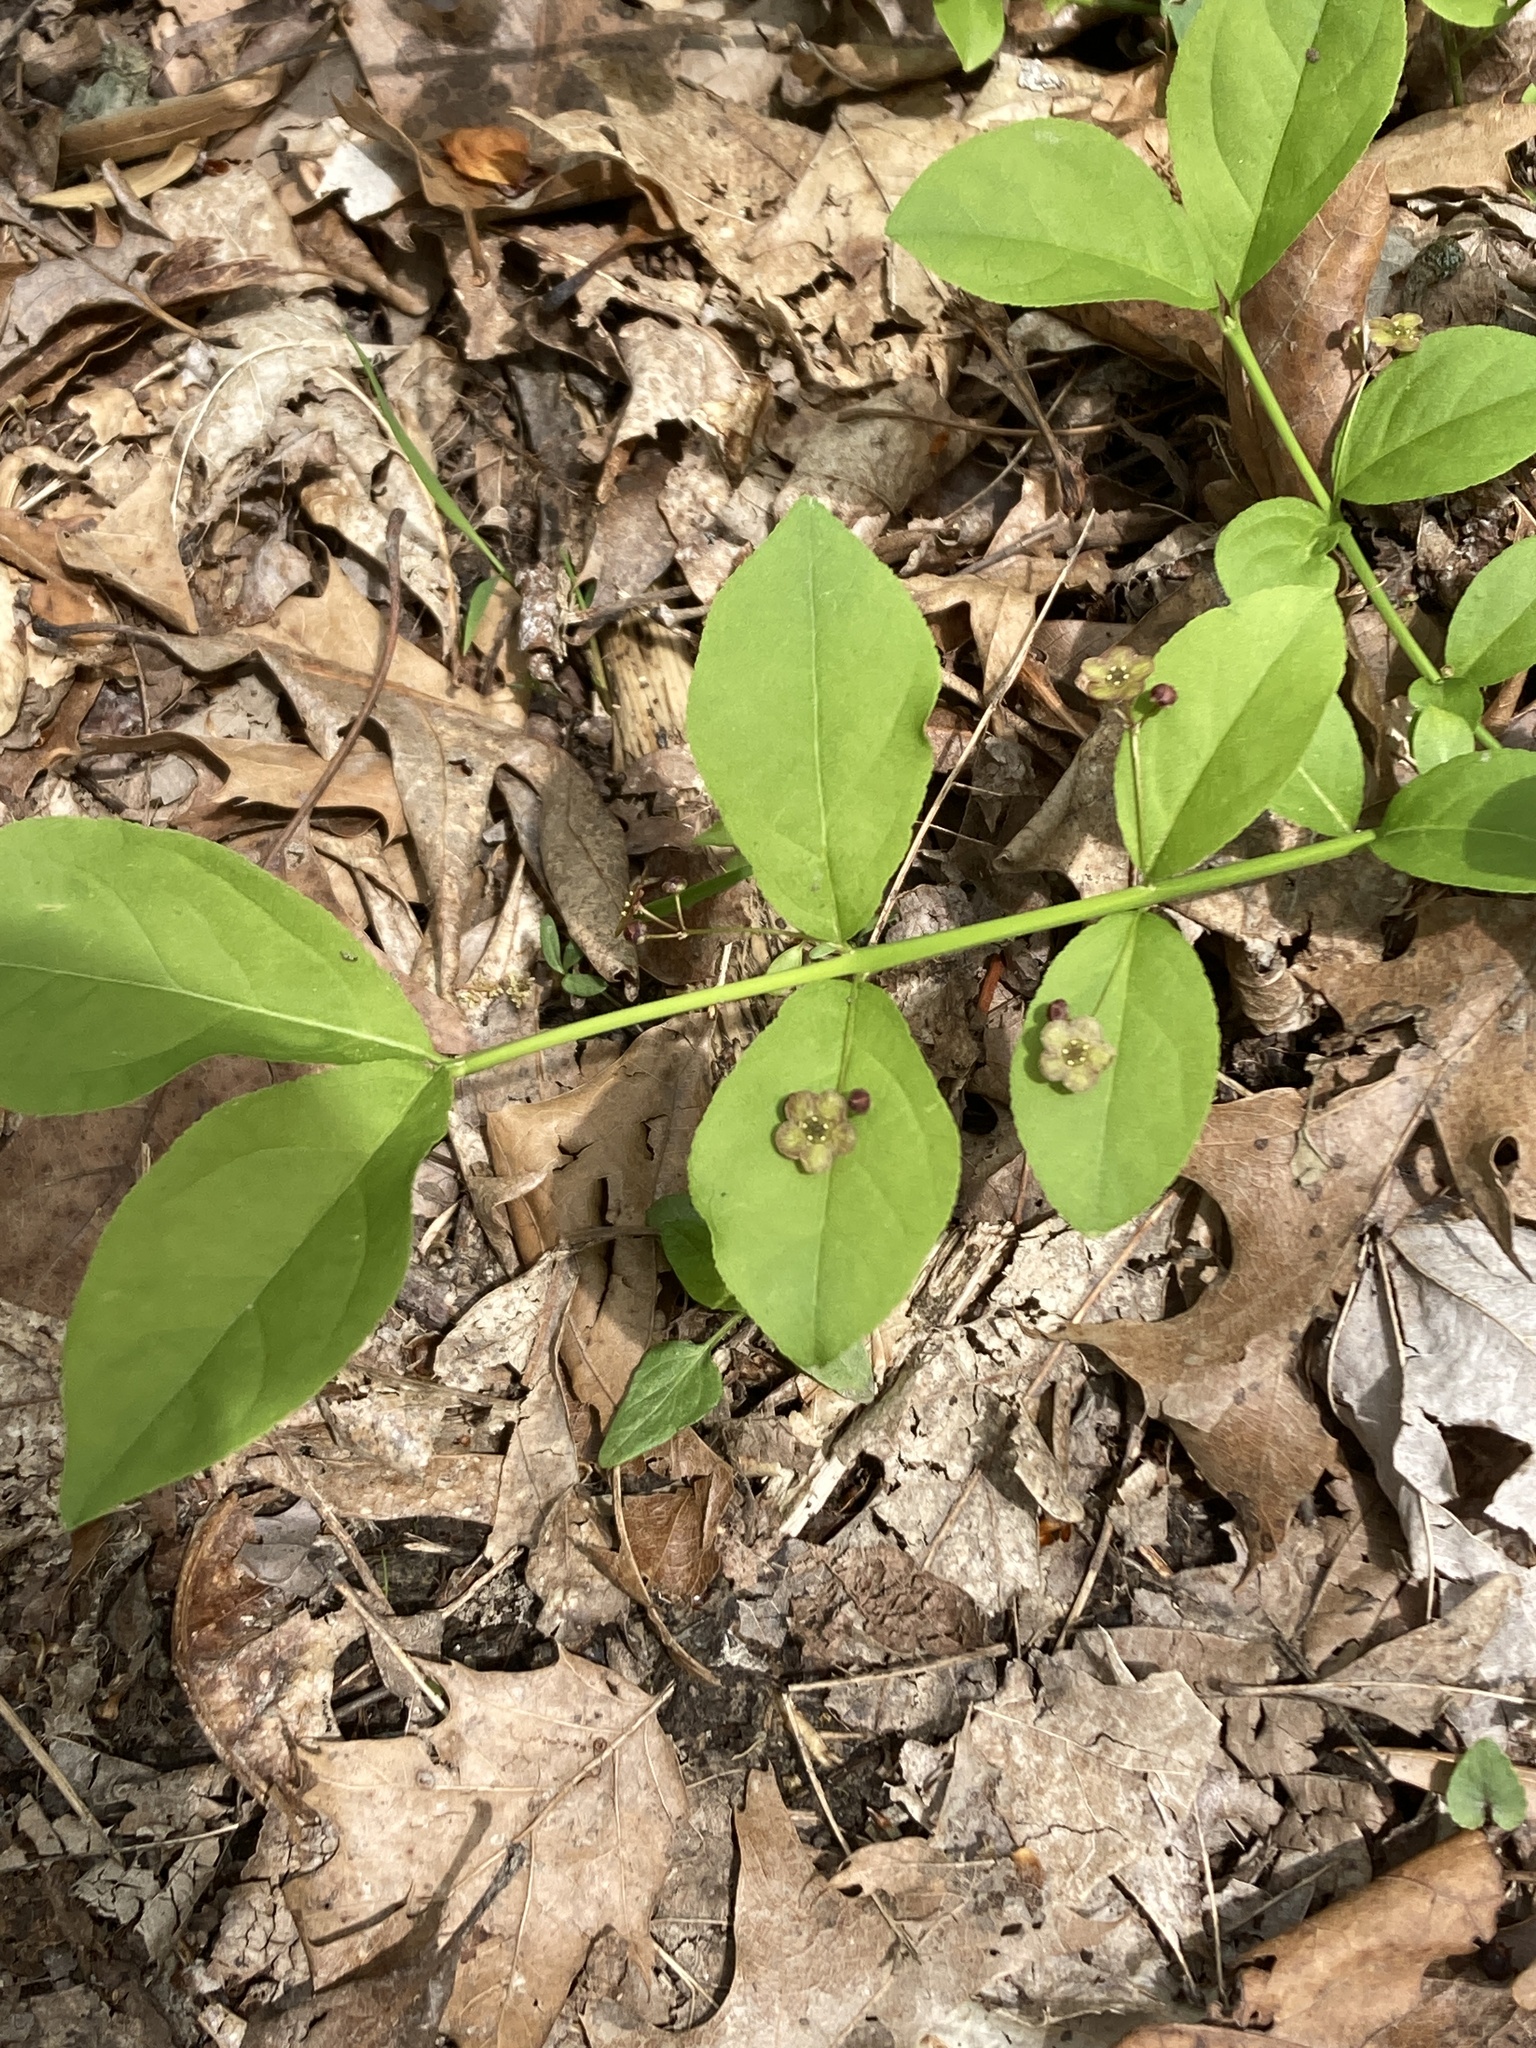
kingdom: Plantae
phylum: Tracheophyta
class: Magnoliopsida
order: Celastrales
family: Celastraceae
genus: Euonymus
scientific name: Euonymus obovatus
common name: Running strawberry-bush
